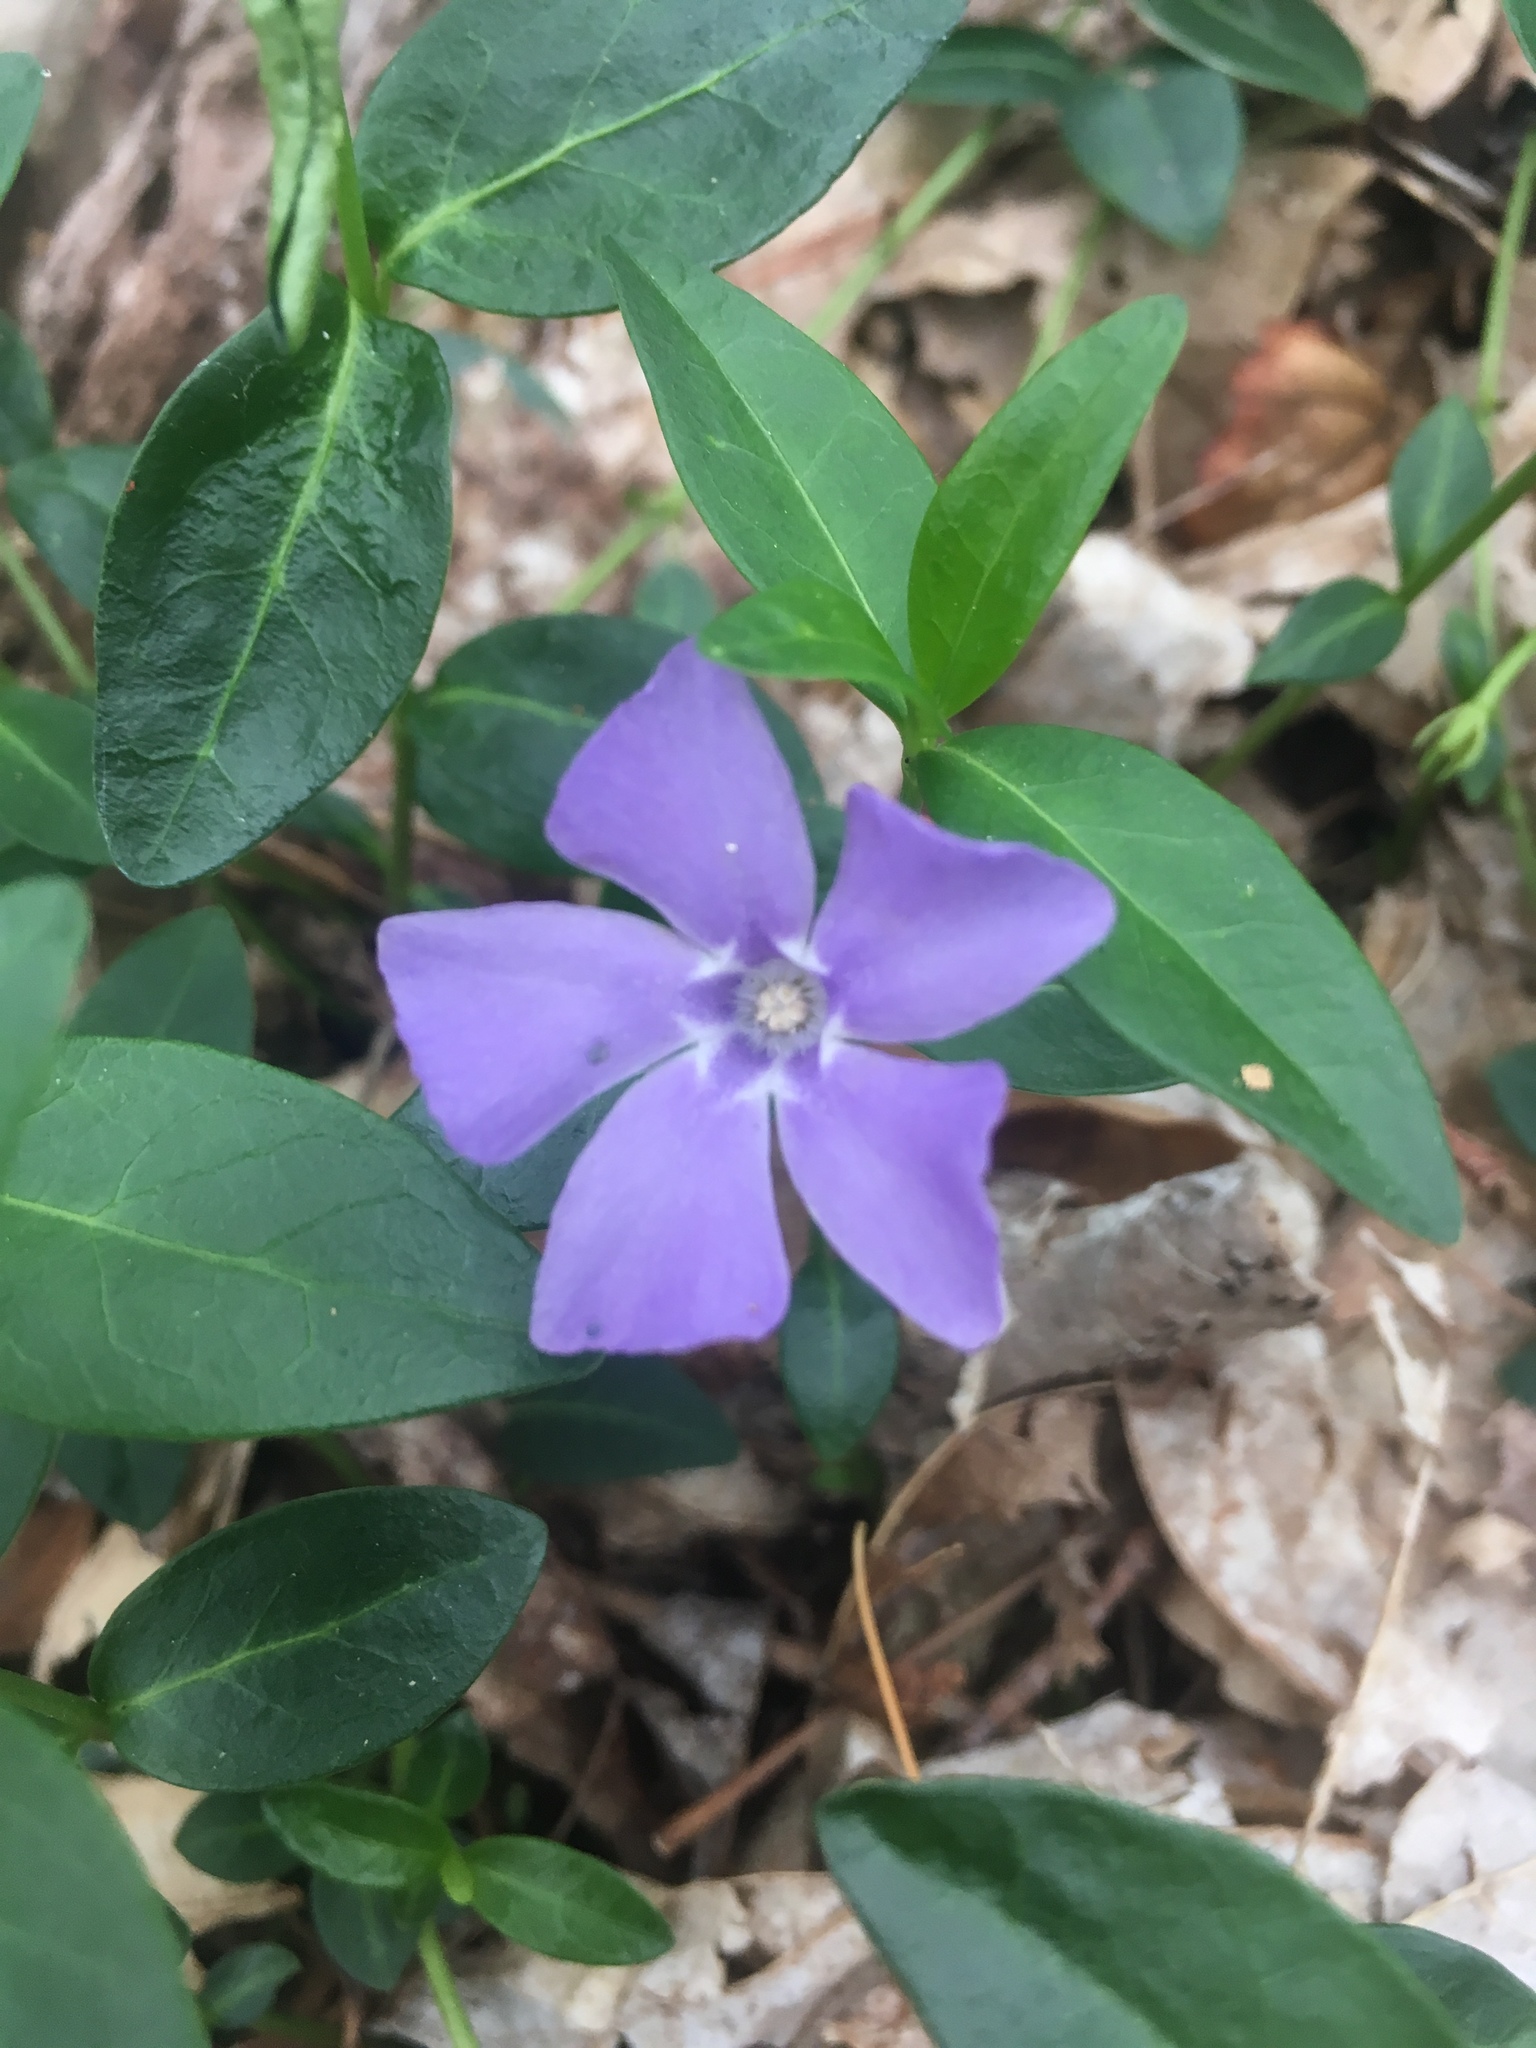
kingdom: Plantae
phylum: Tracheophyta
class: Magnoliopsida
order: Gentianales
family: Apocynaceae
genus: Vinca
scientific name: Vinca minor
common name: Lesser periwinkle
